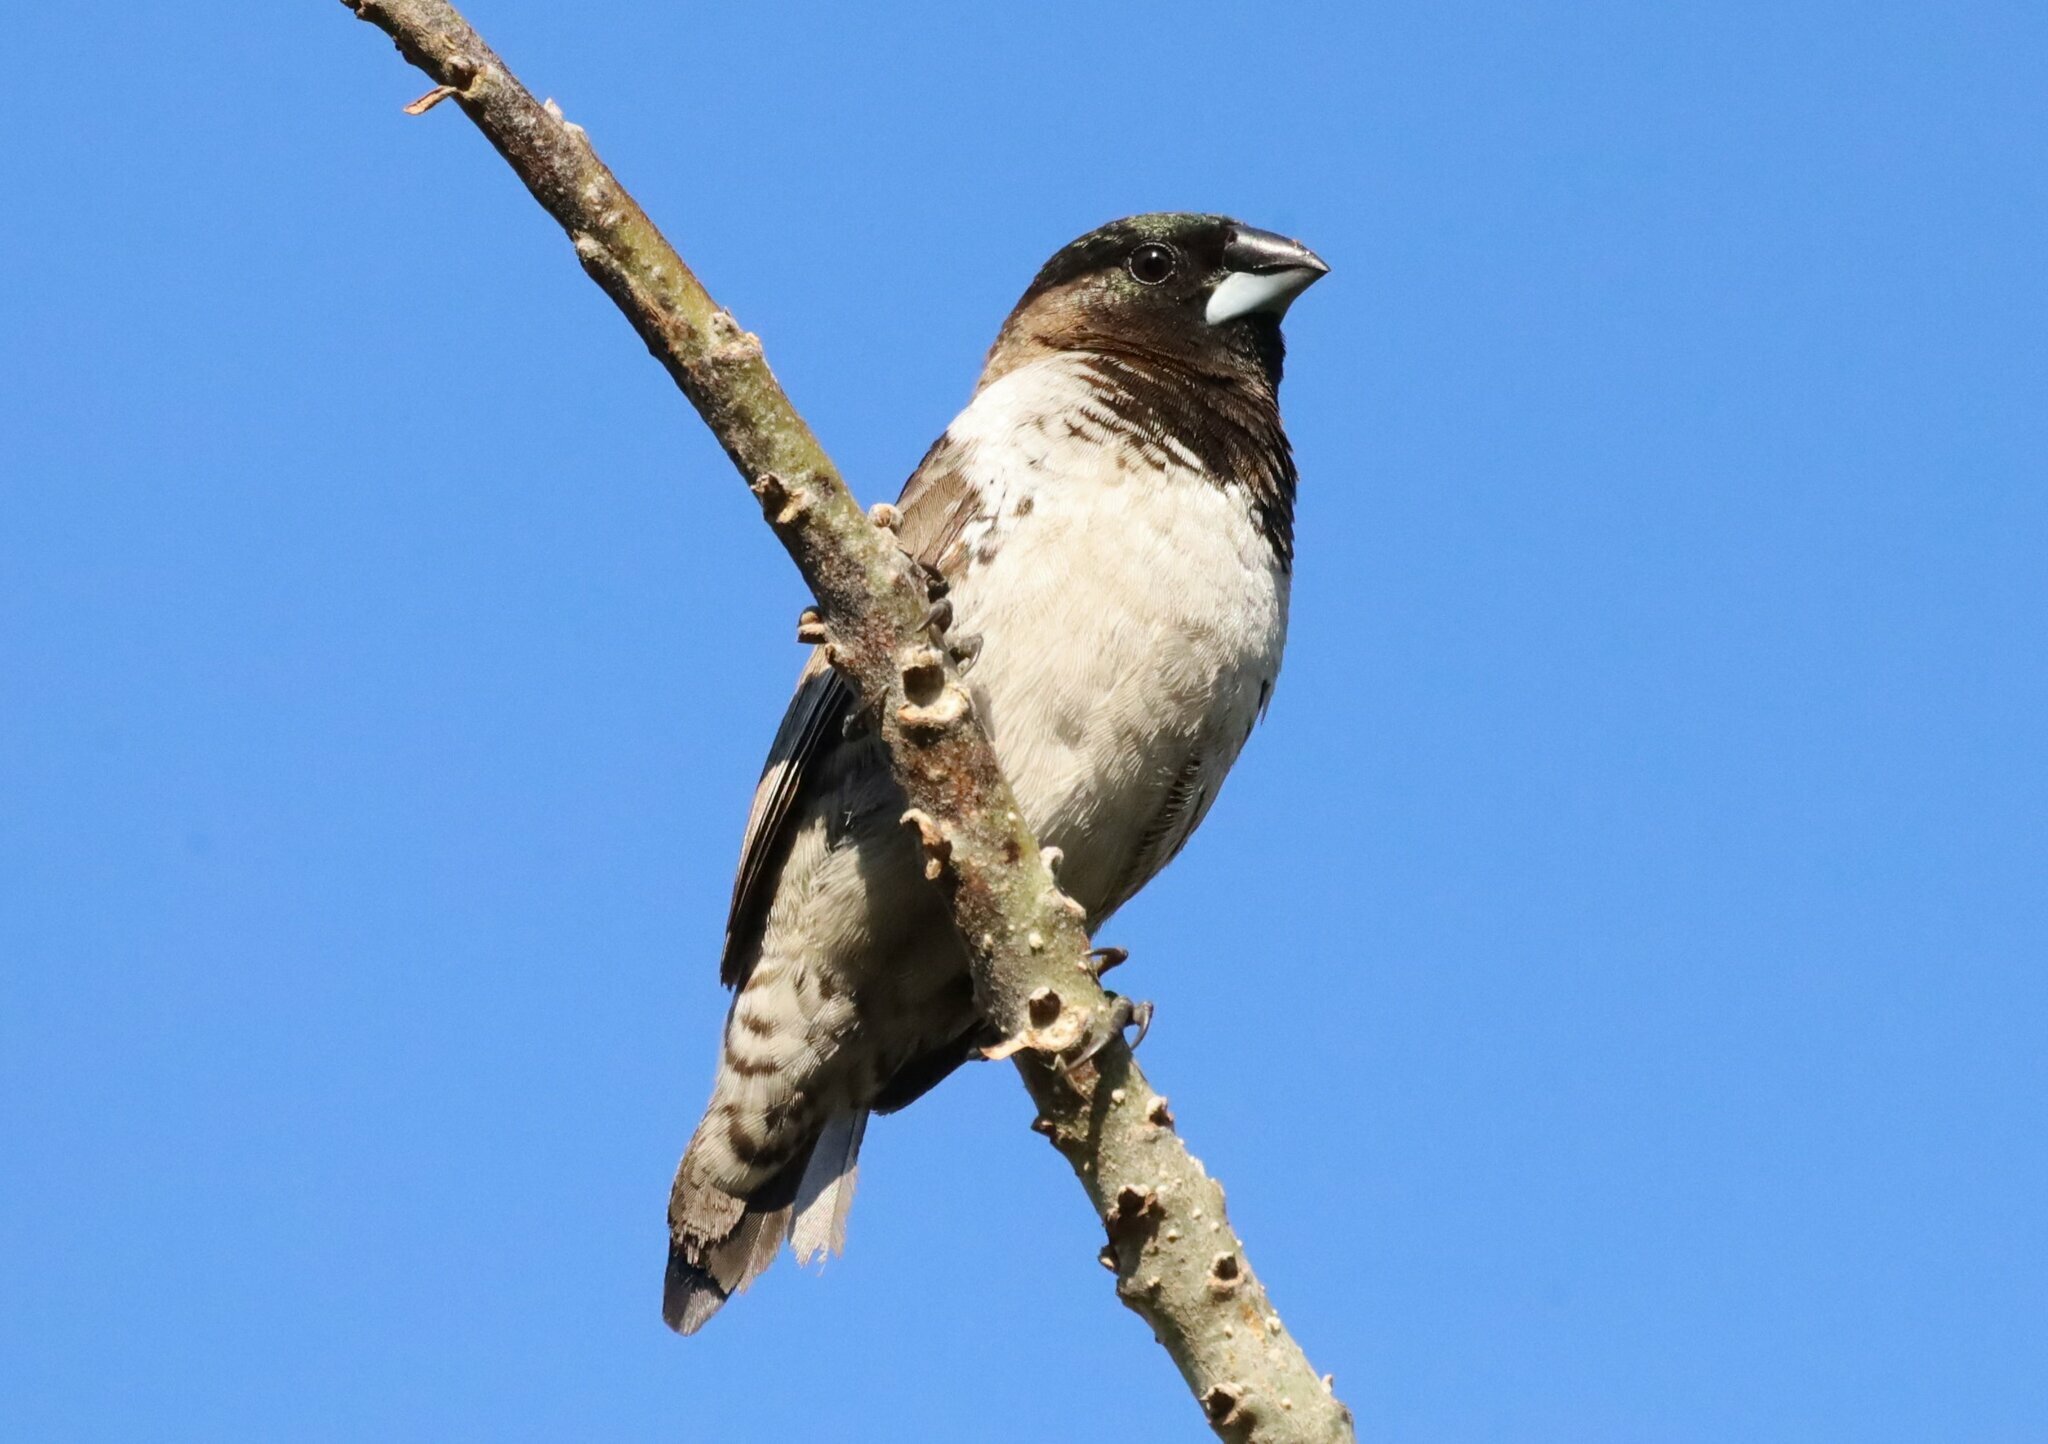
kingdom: Animalia
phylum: Chordata
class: Aves
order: Passeriformes
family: Estrildidae
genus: Lonchura
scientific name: Lonchura cucullata
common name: Bronze mannikin
